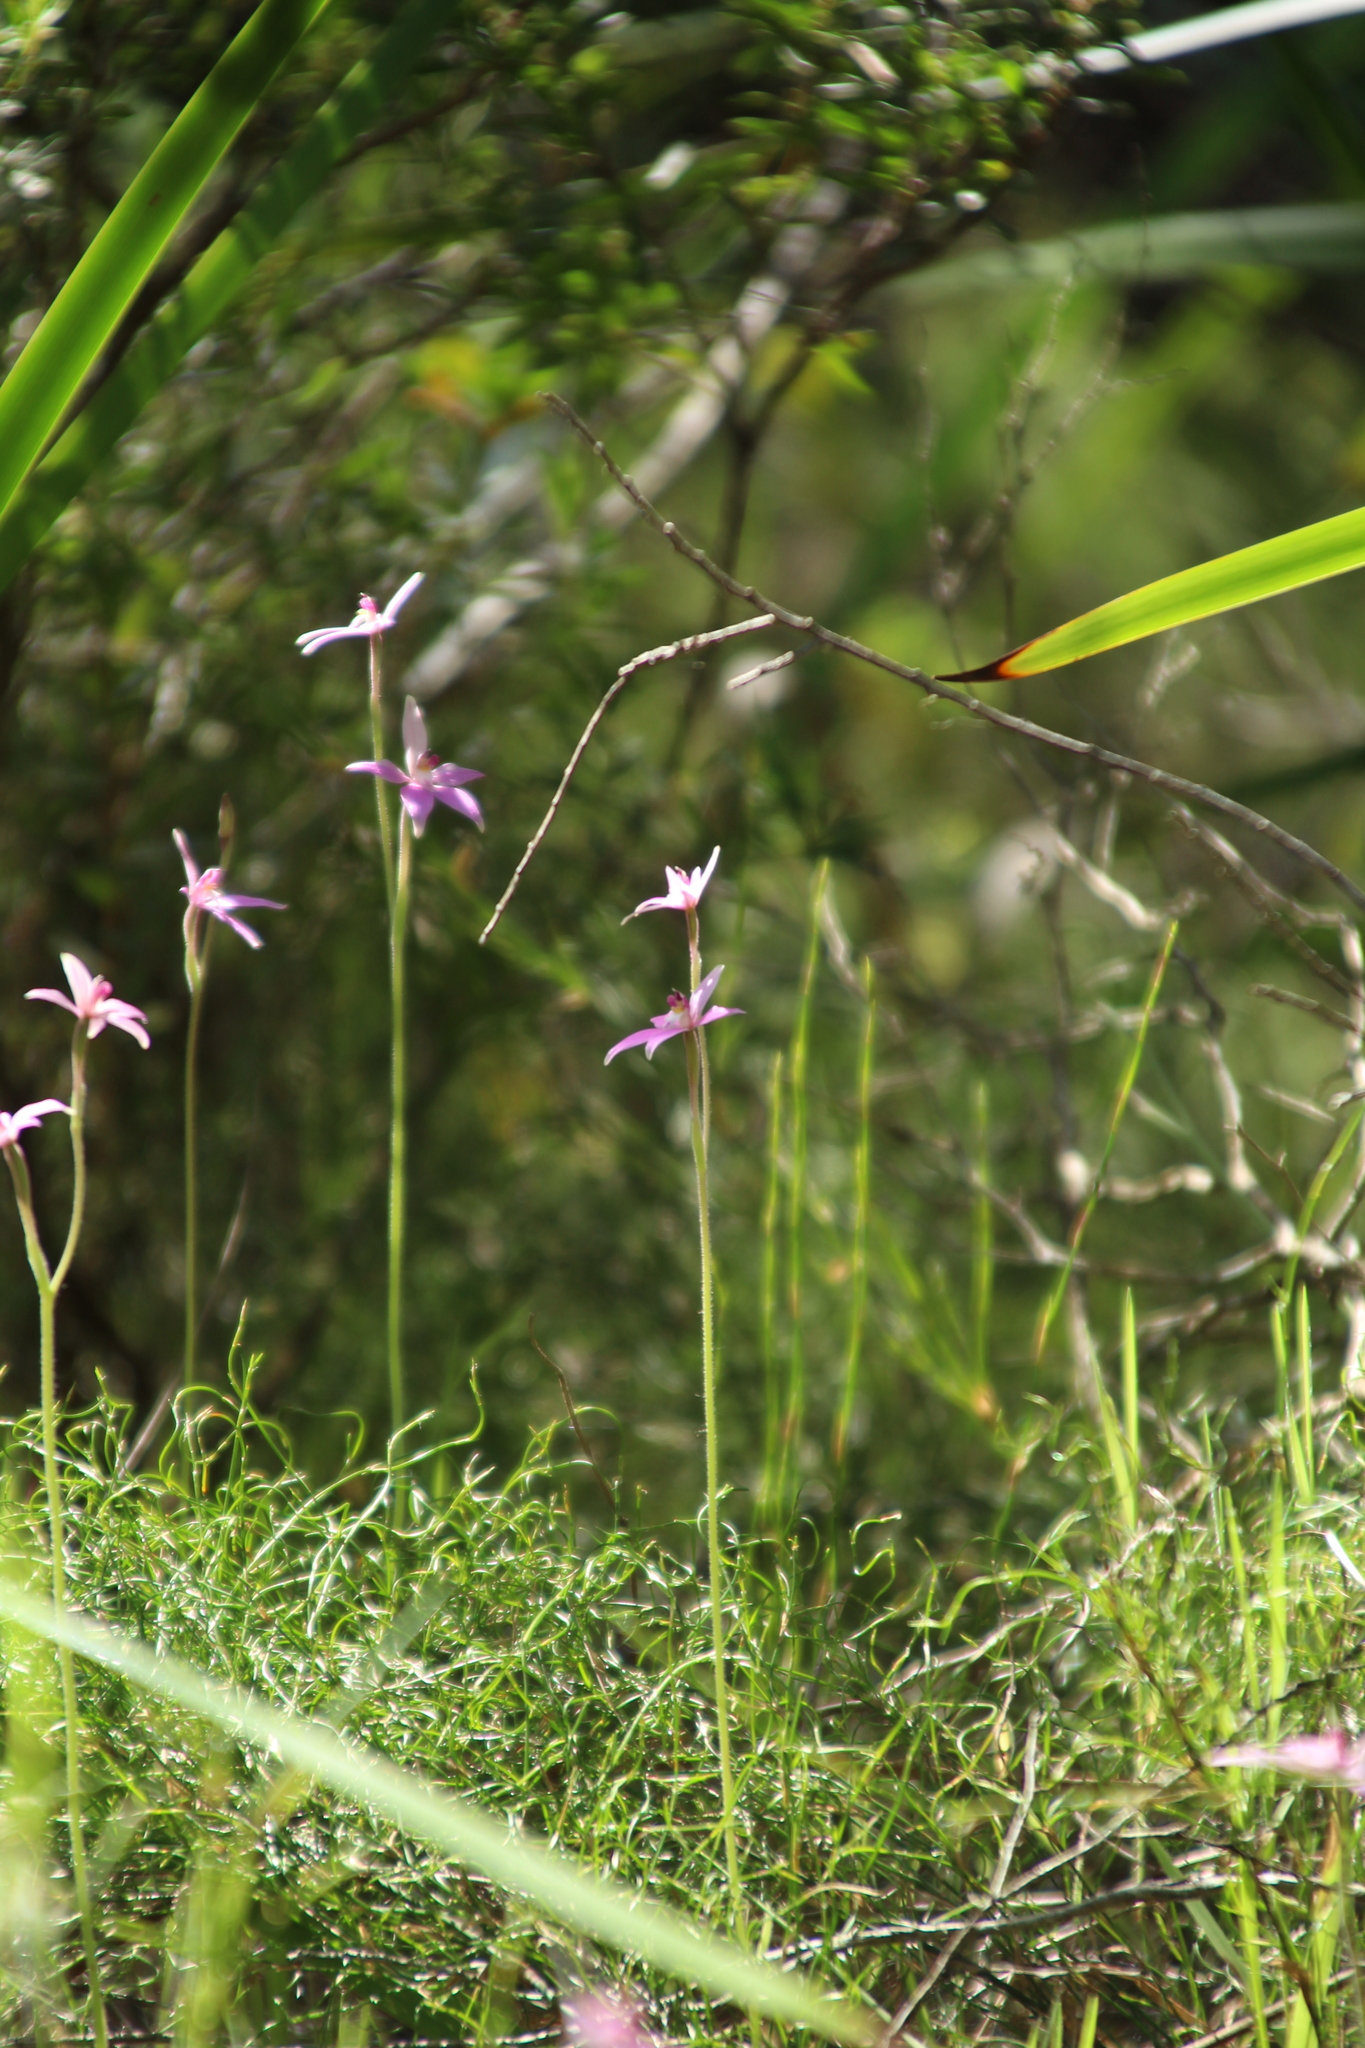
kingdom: Plantae
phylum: Tracheophyta
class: Liliopsida
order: Asparagales
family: Orchidaceae
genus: Caladenia
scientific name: Caladenia latifolia
